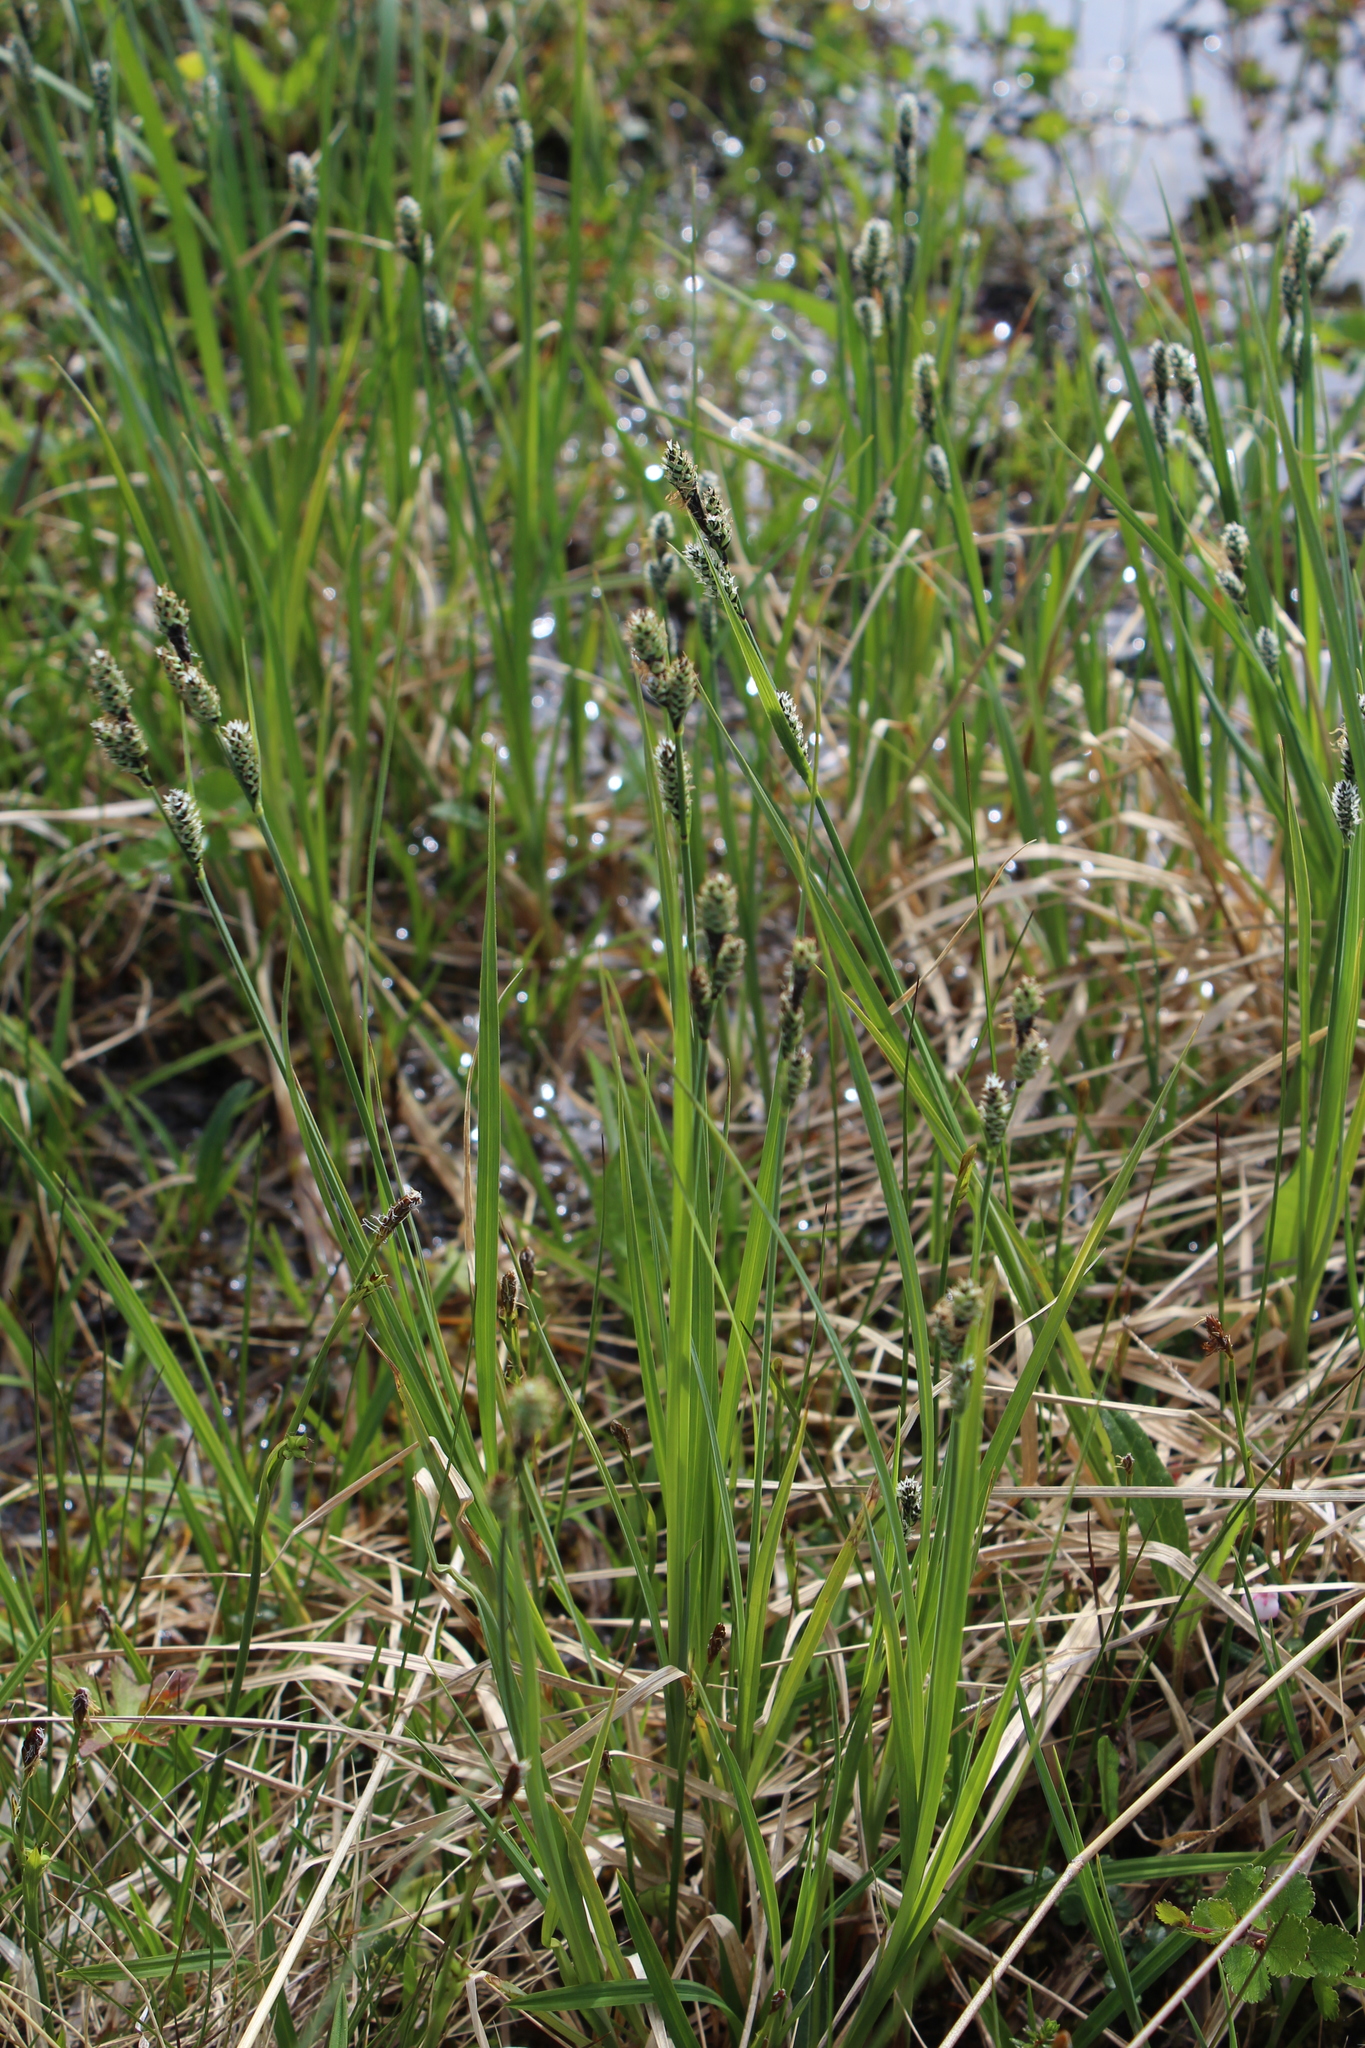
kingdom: Plantae
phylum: Tracheophyta
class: Liliopsida
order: Poales
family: Cyperaceae
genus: Carex
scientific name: Carex adelostoma
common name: Circumpolar sedge
